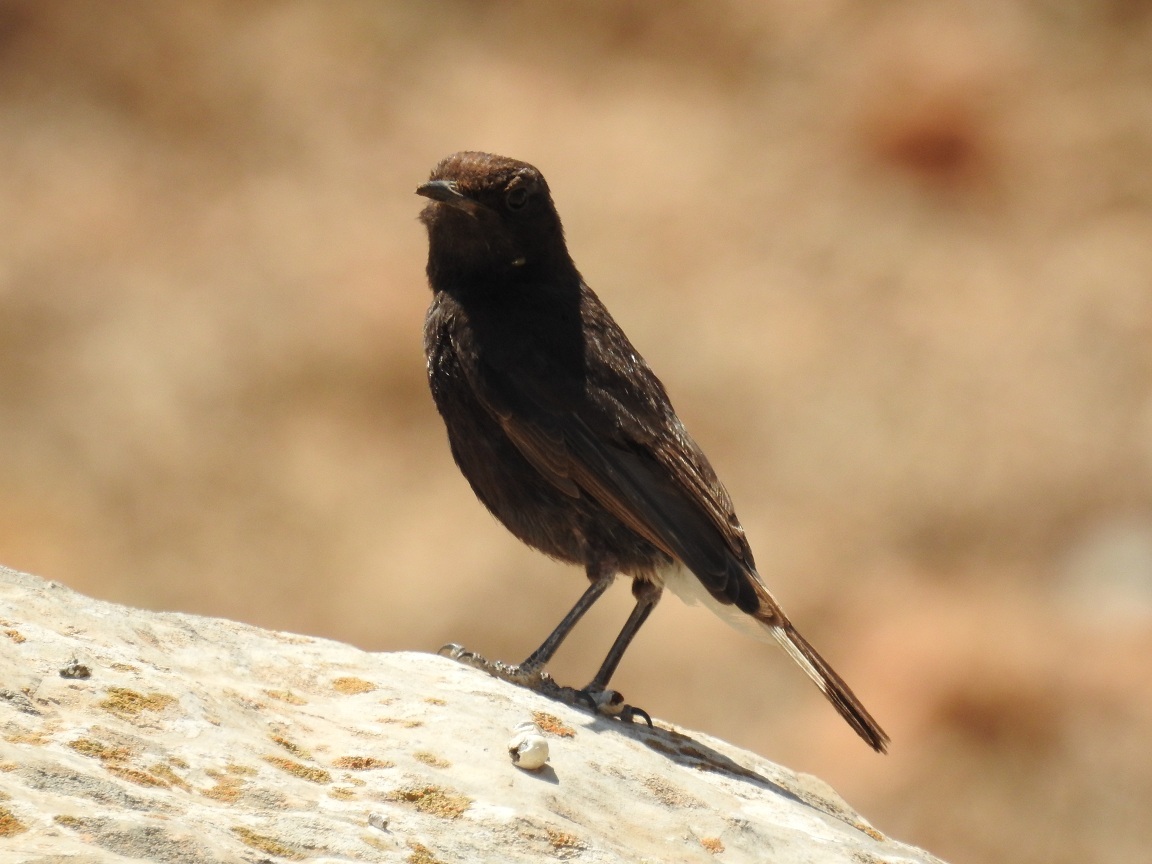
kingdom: Animalia
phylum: Chordata
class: Aves
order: Passeriformes
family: Muscicapidae
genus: Oenanthe
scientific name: Oenanthe leucura
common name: Black wheatear
